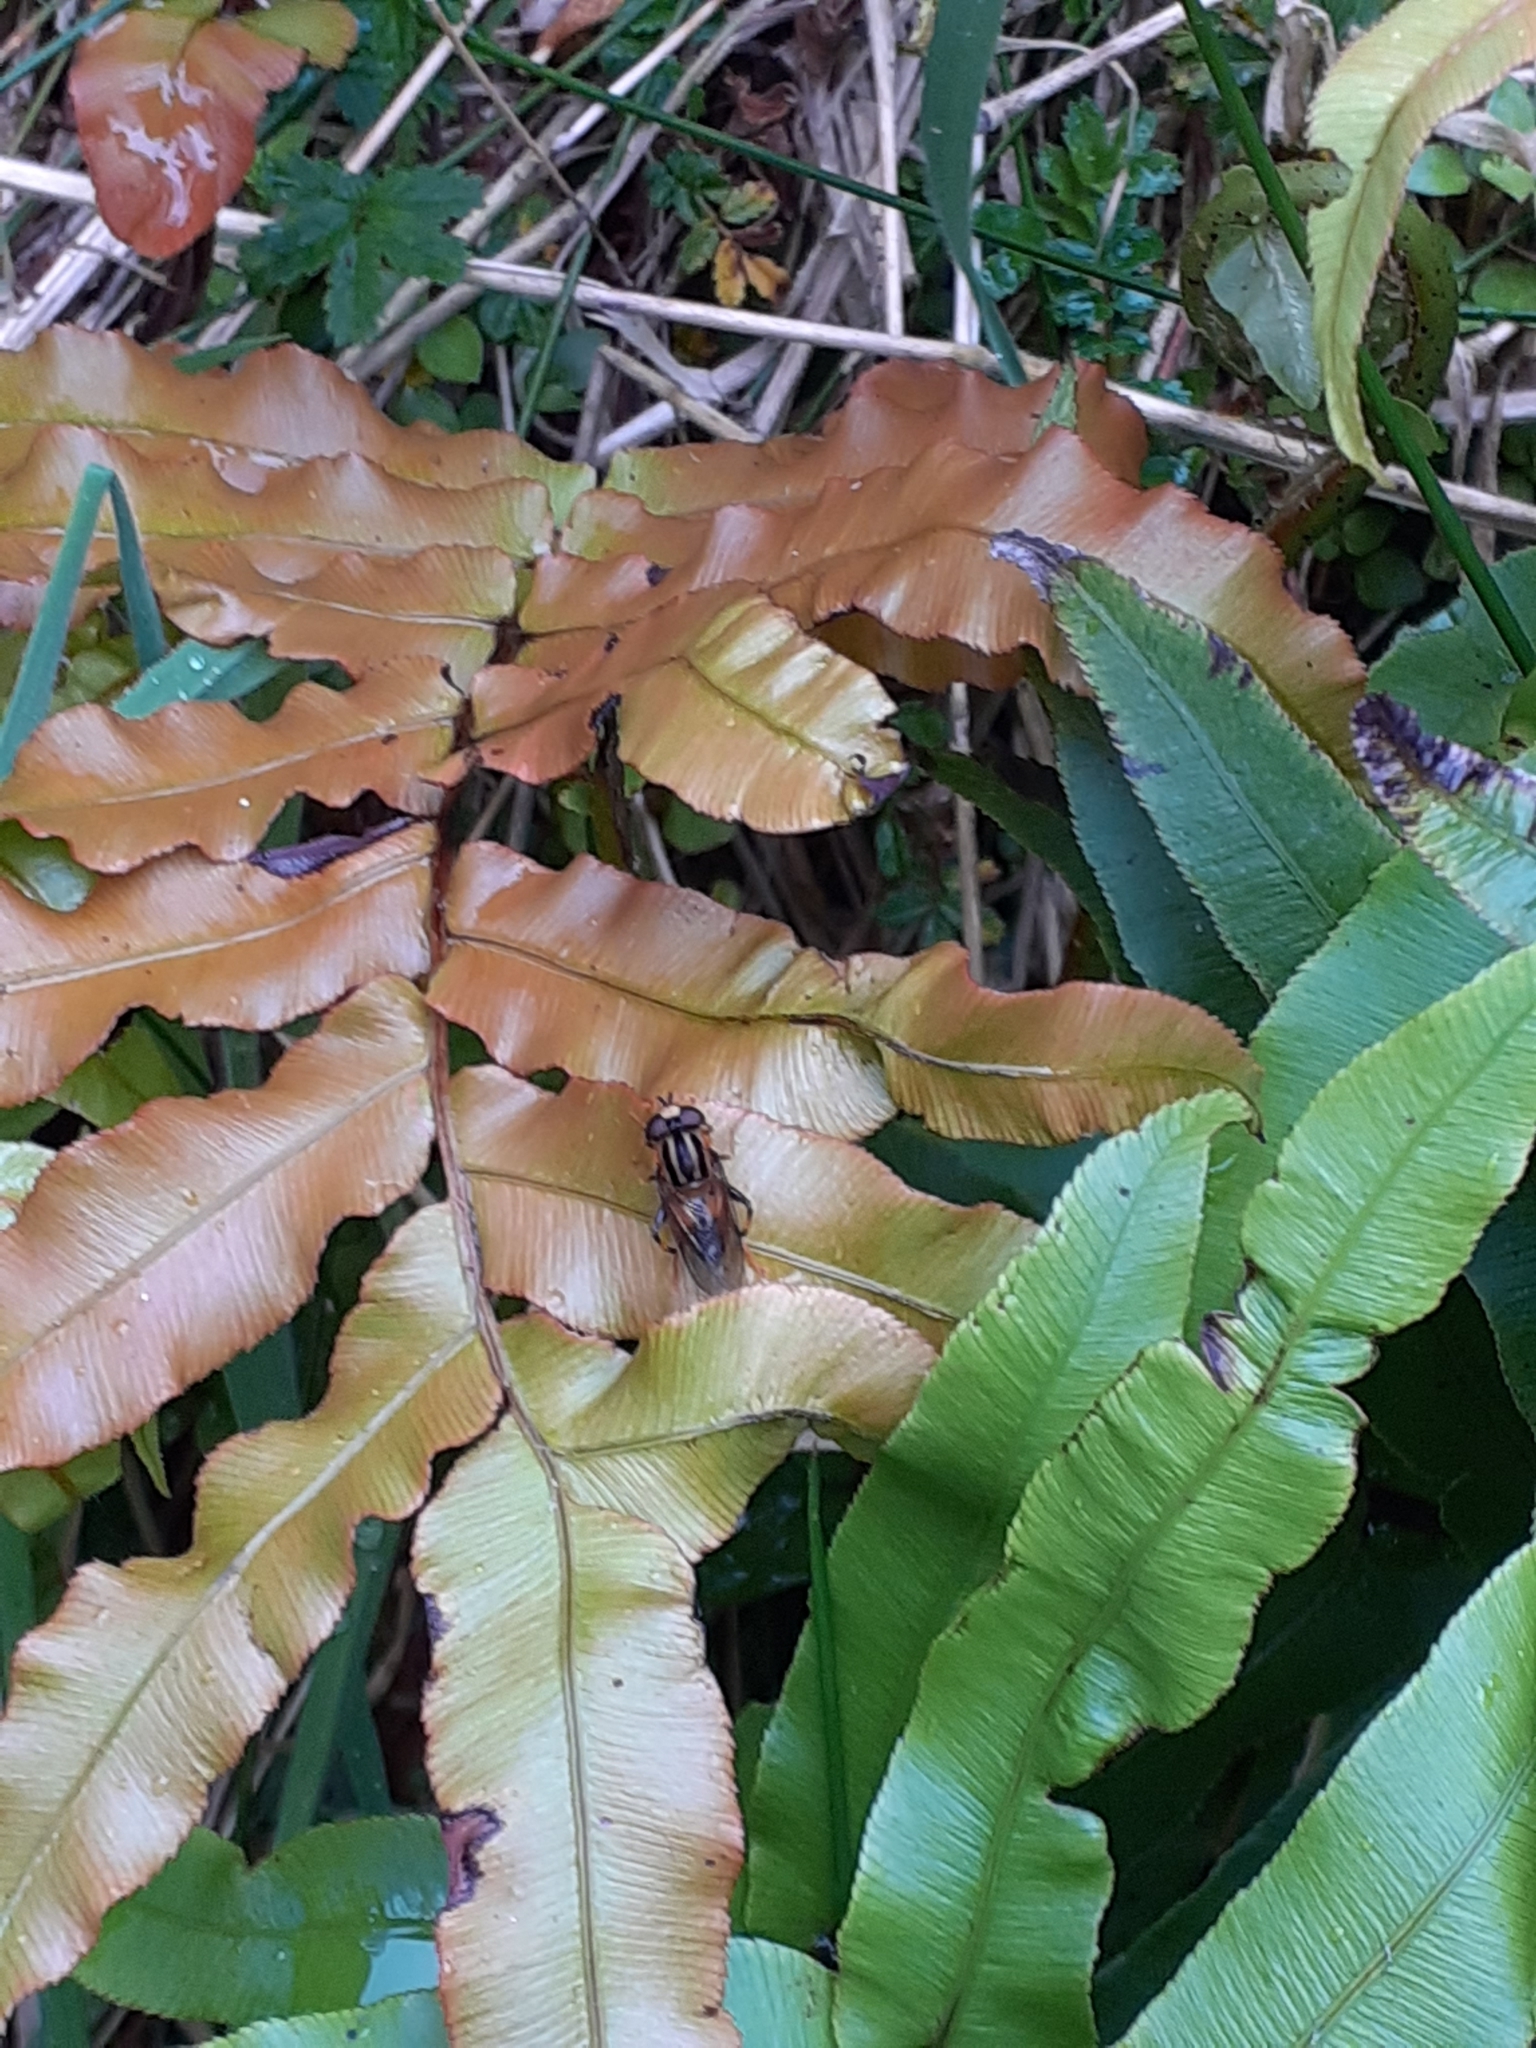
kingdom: Animalia
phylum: Arthropoda
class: Insecta
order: Diptera
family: Syrphidae
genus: Helophilus
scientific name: Helophilus antipodus
